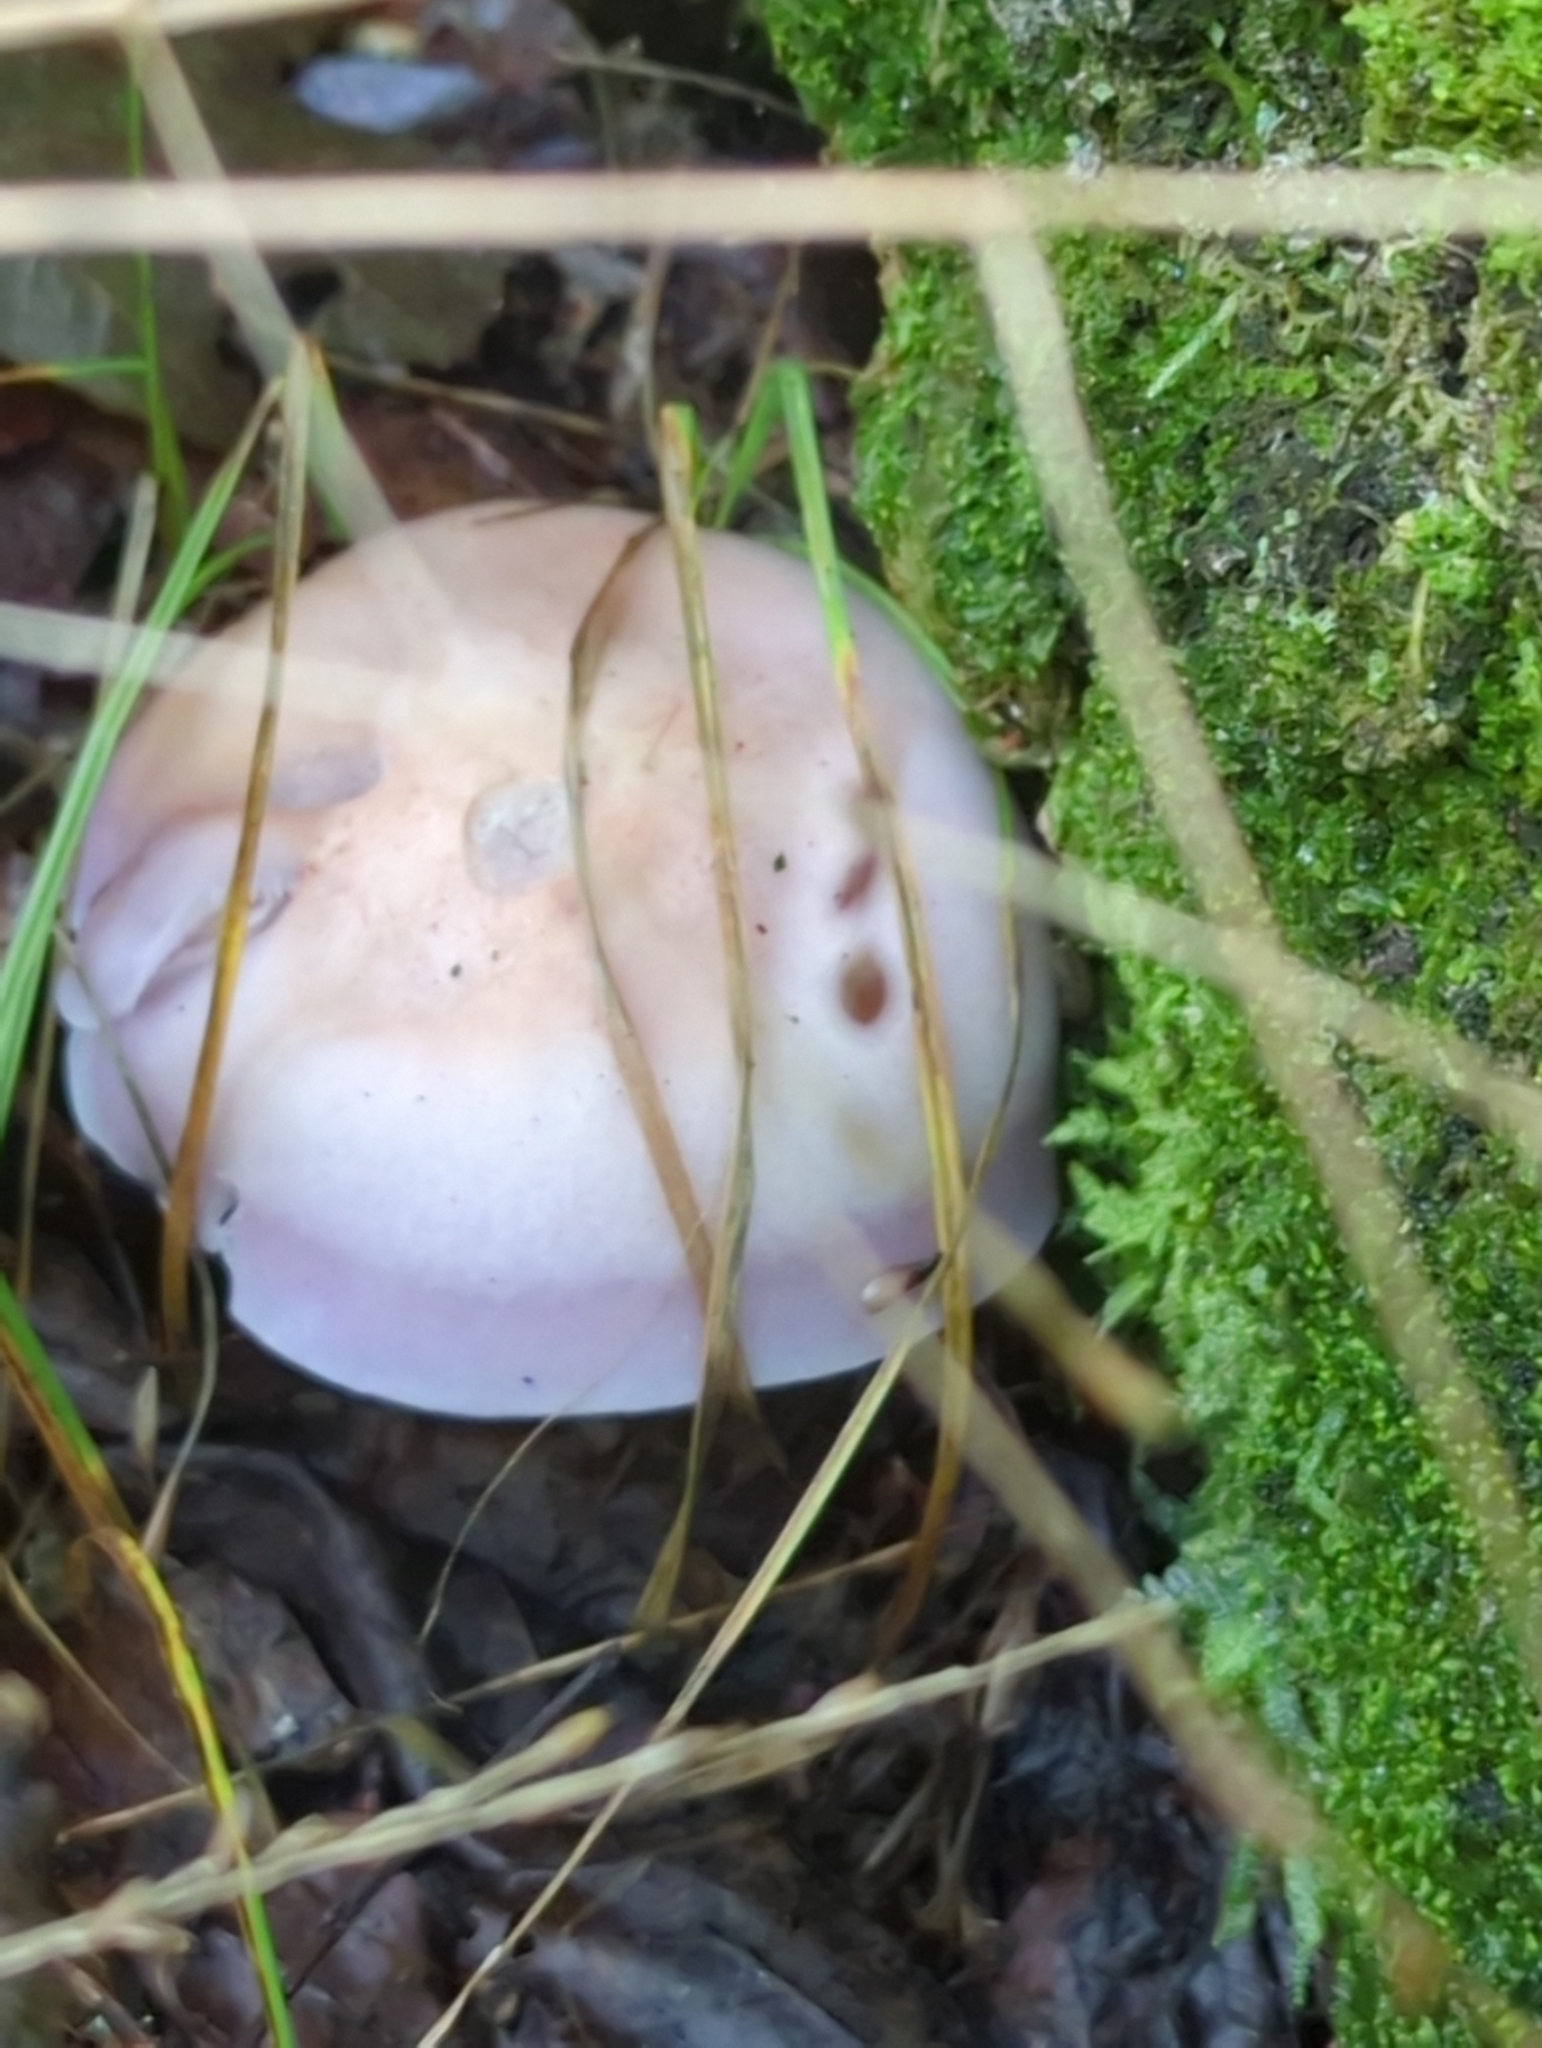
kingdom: Fungi
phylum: Basidiomycota
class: Agaricomycetes
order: Agaricales
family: Tricholomataceae
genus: Collybia
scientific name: Collybia
